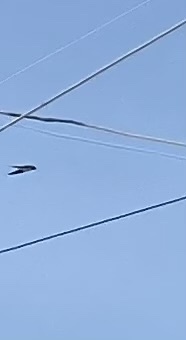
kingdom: Animalia
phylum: Chordata
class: Aves
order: Passeriformes
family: Hirundinidae
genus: Hirundo
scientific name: Hirundo rustica
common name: Barn swallow
